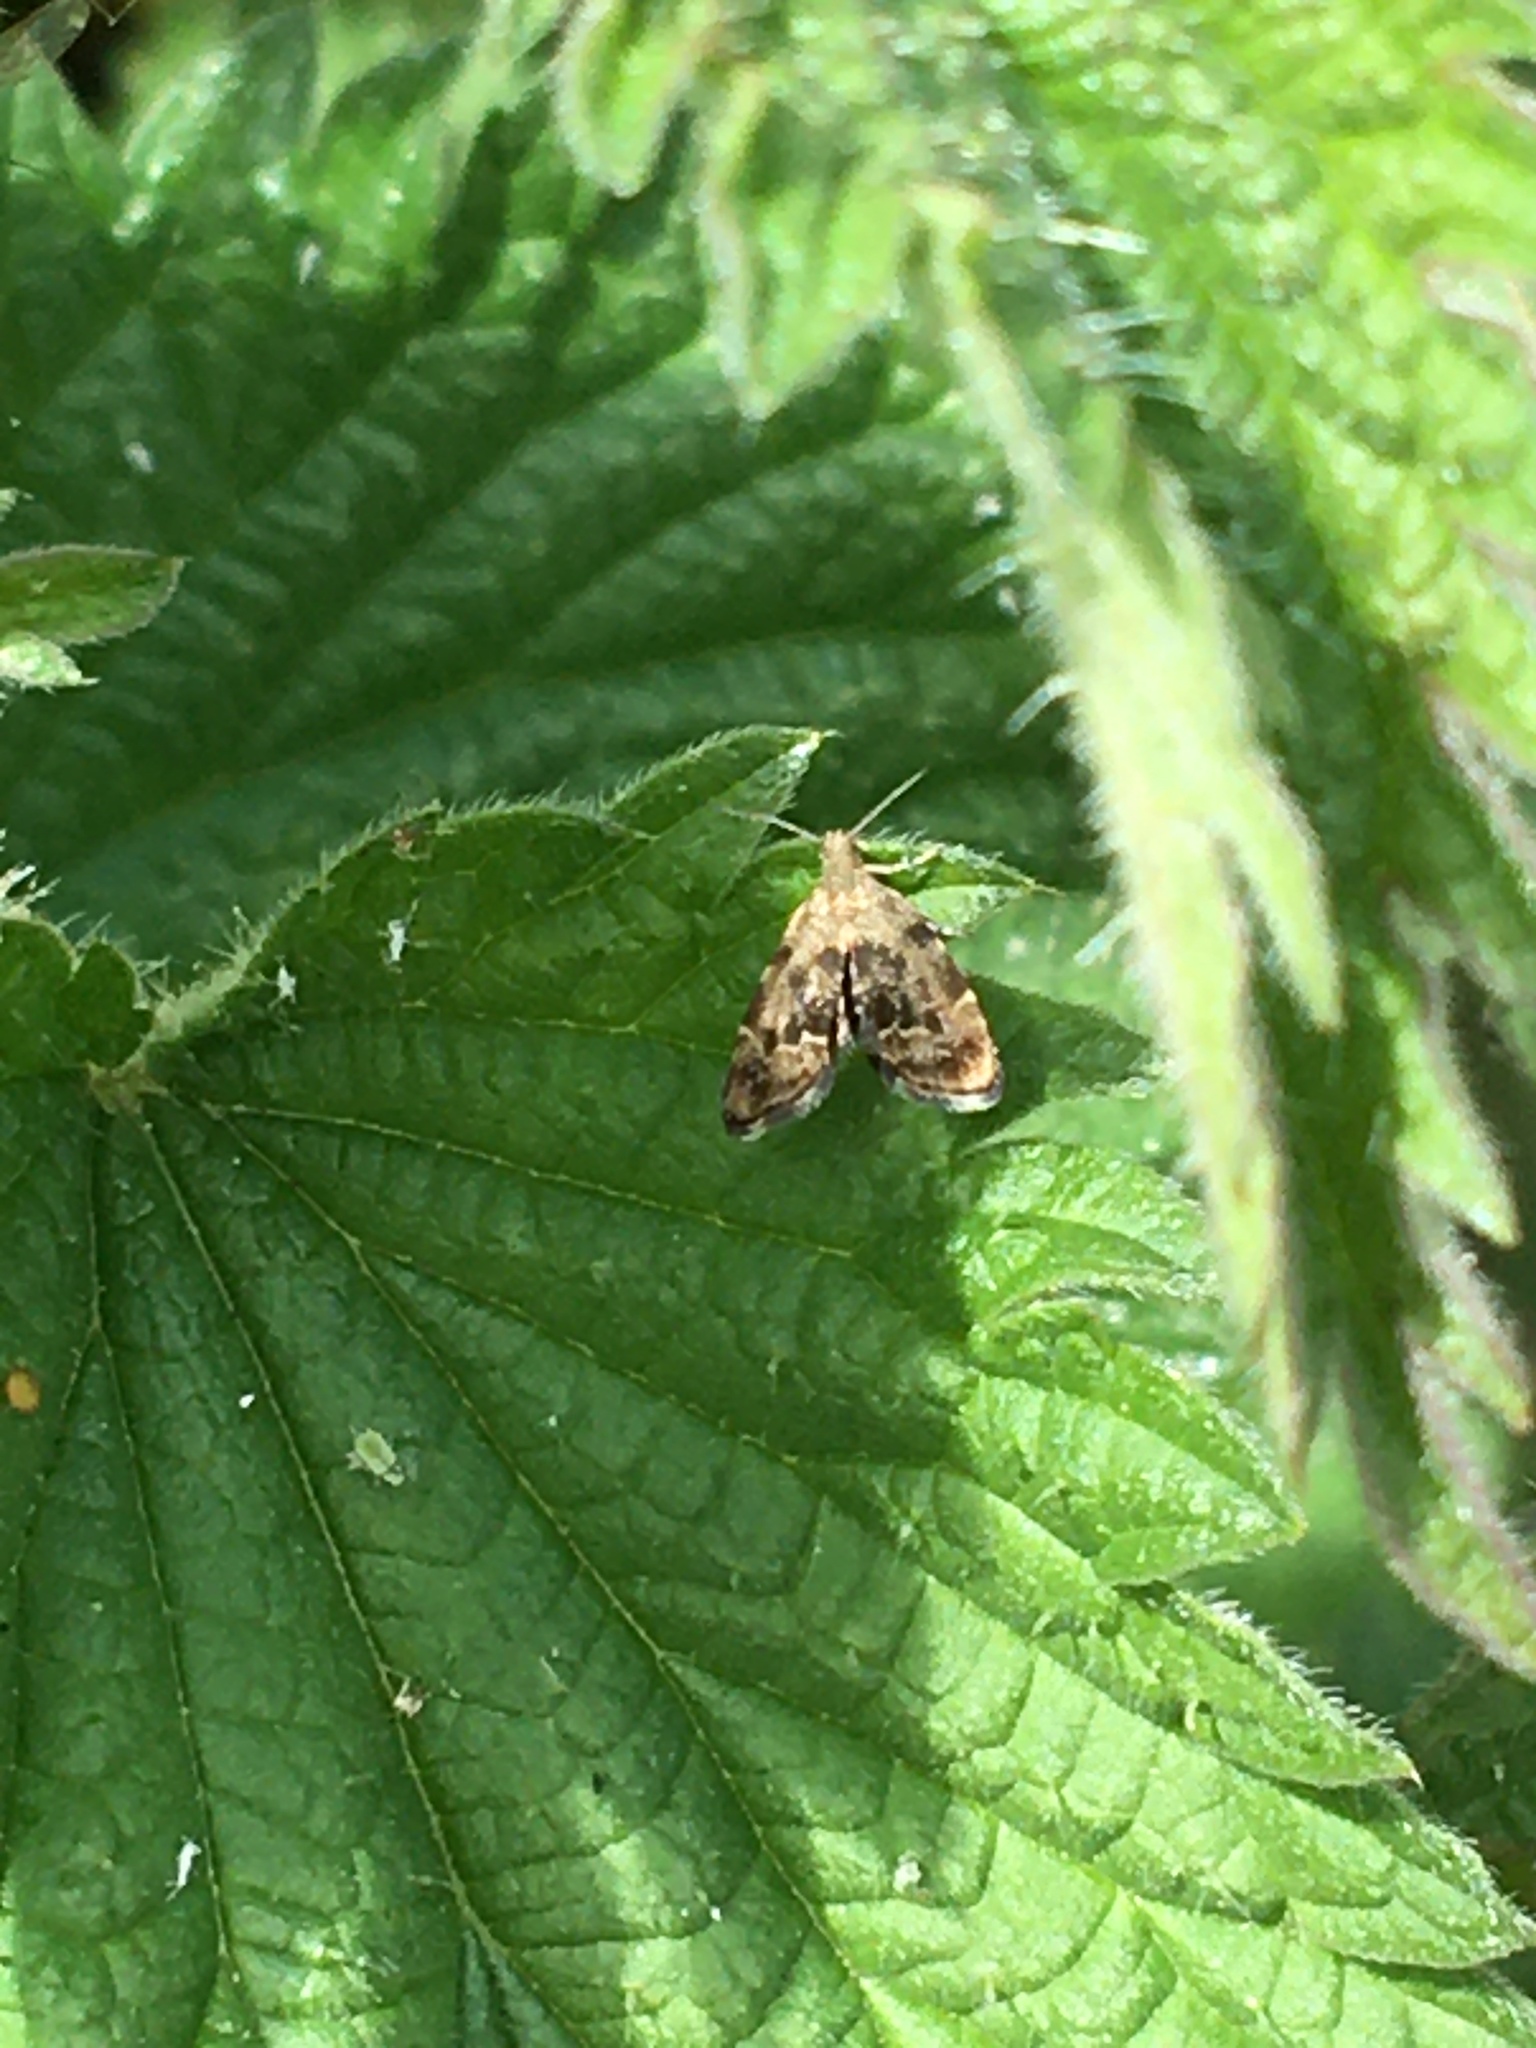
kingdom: Animalia
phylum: Arthropoda
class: Insecta
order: Lepidoptera
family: Choreutidae
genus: Anthophila
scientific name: Anthophila fabriciana
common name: Nettle-tap
